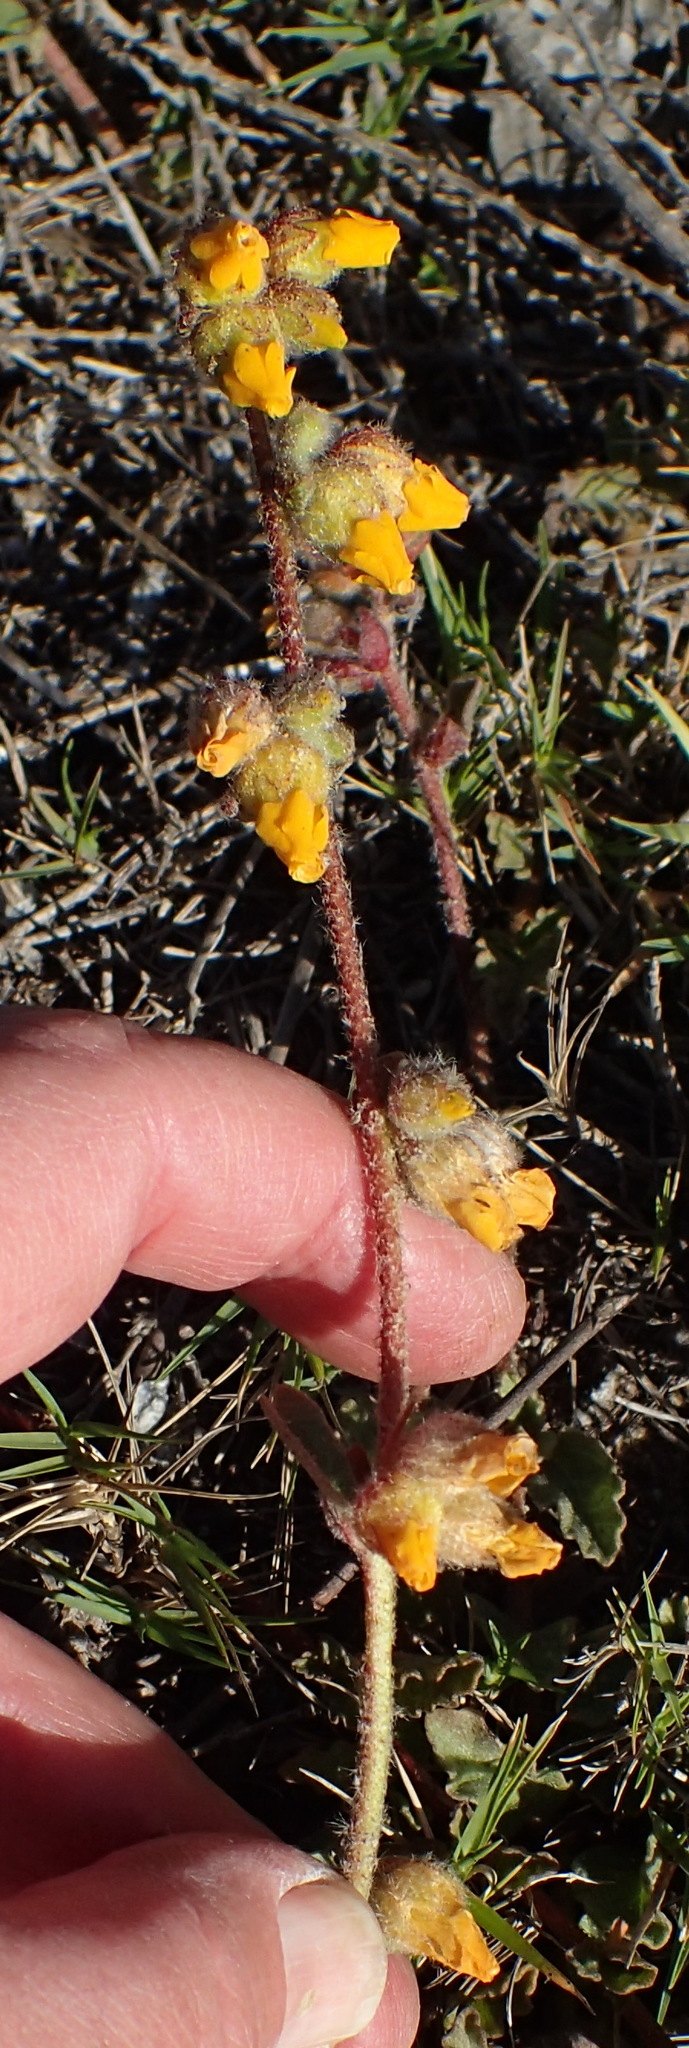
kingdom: Plantae
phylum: Tracheophyta
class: Magnoliopsida
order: Malvales
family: Malvaceae
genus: Hermannia
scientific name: Hermannia decumbens
